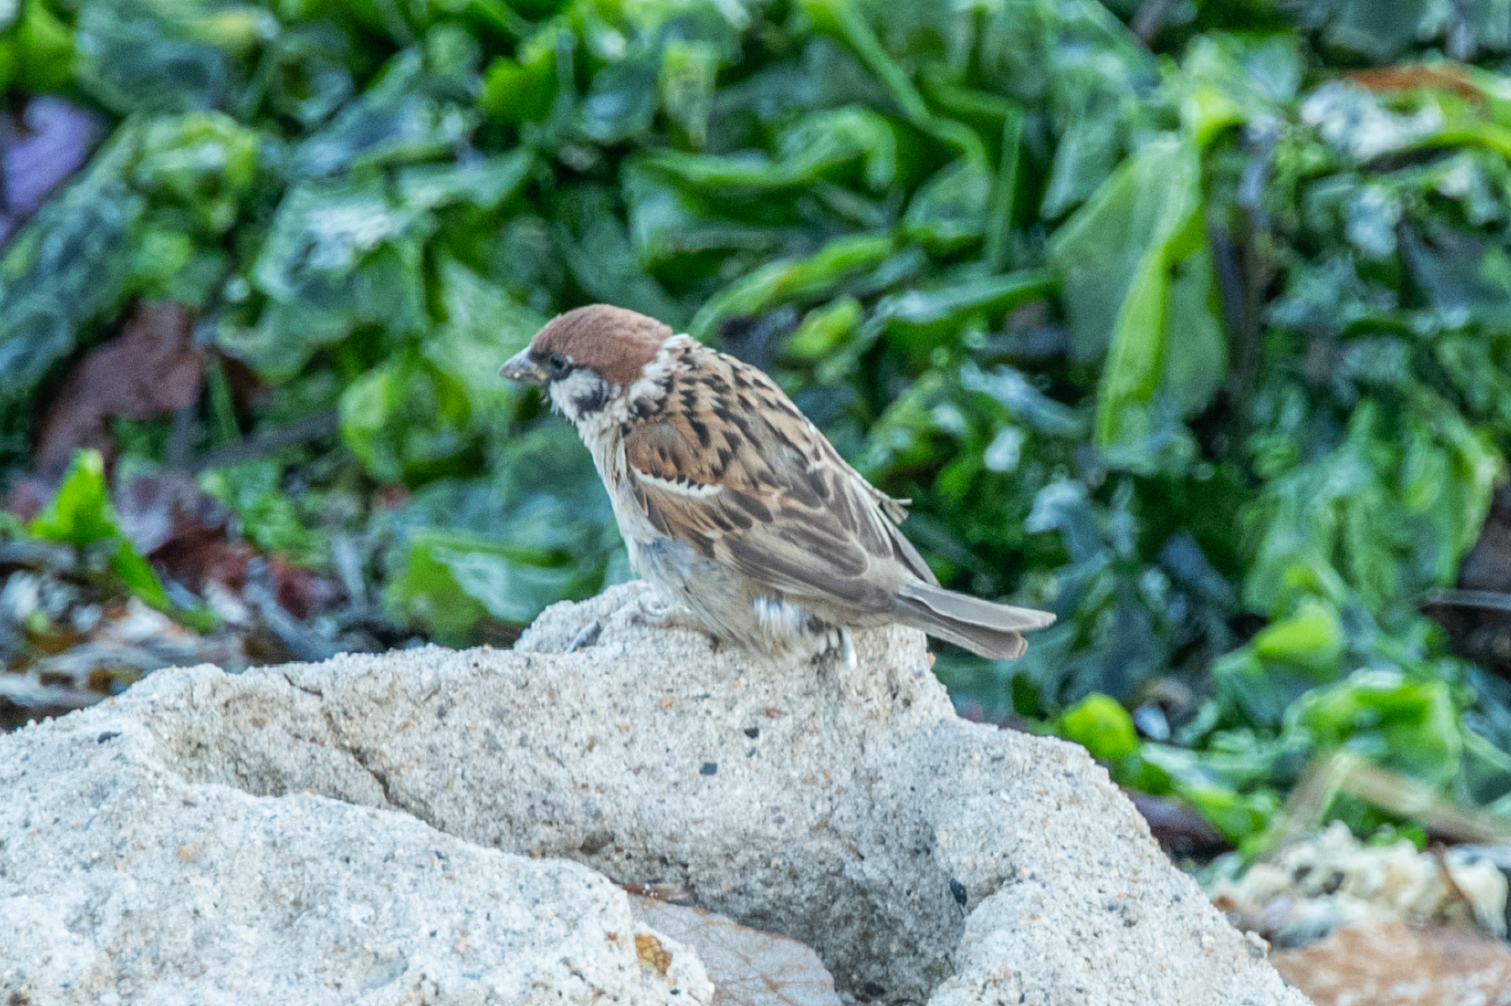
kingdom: Animalia
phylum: Chordata
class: Aves
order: Passeriformes
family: Passeridae
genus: Passer
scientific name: Passer montanus
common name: Eurasian tree sparrow
